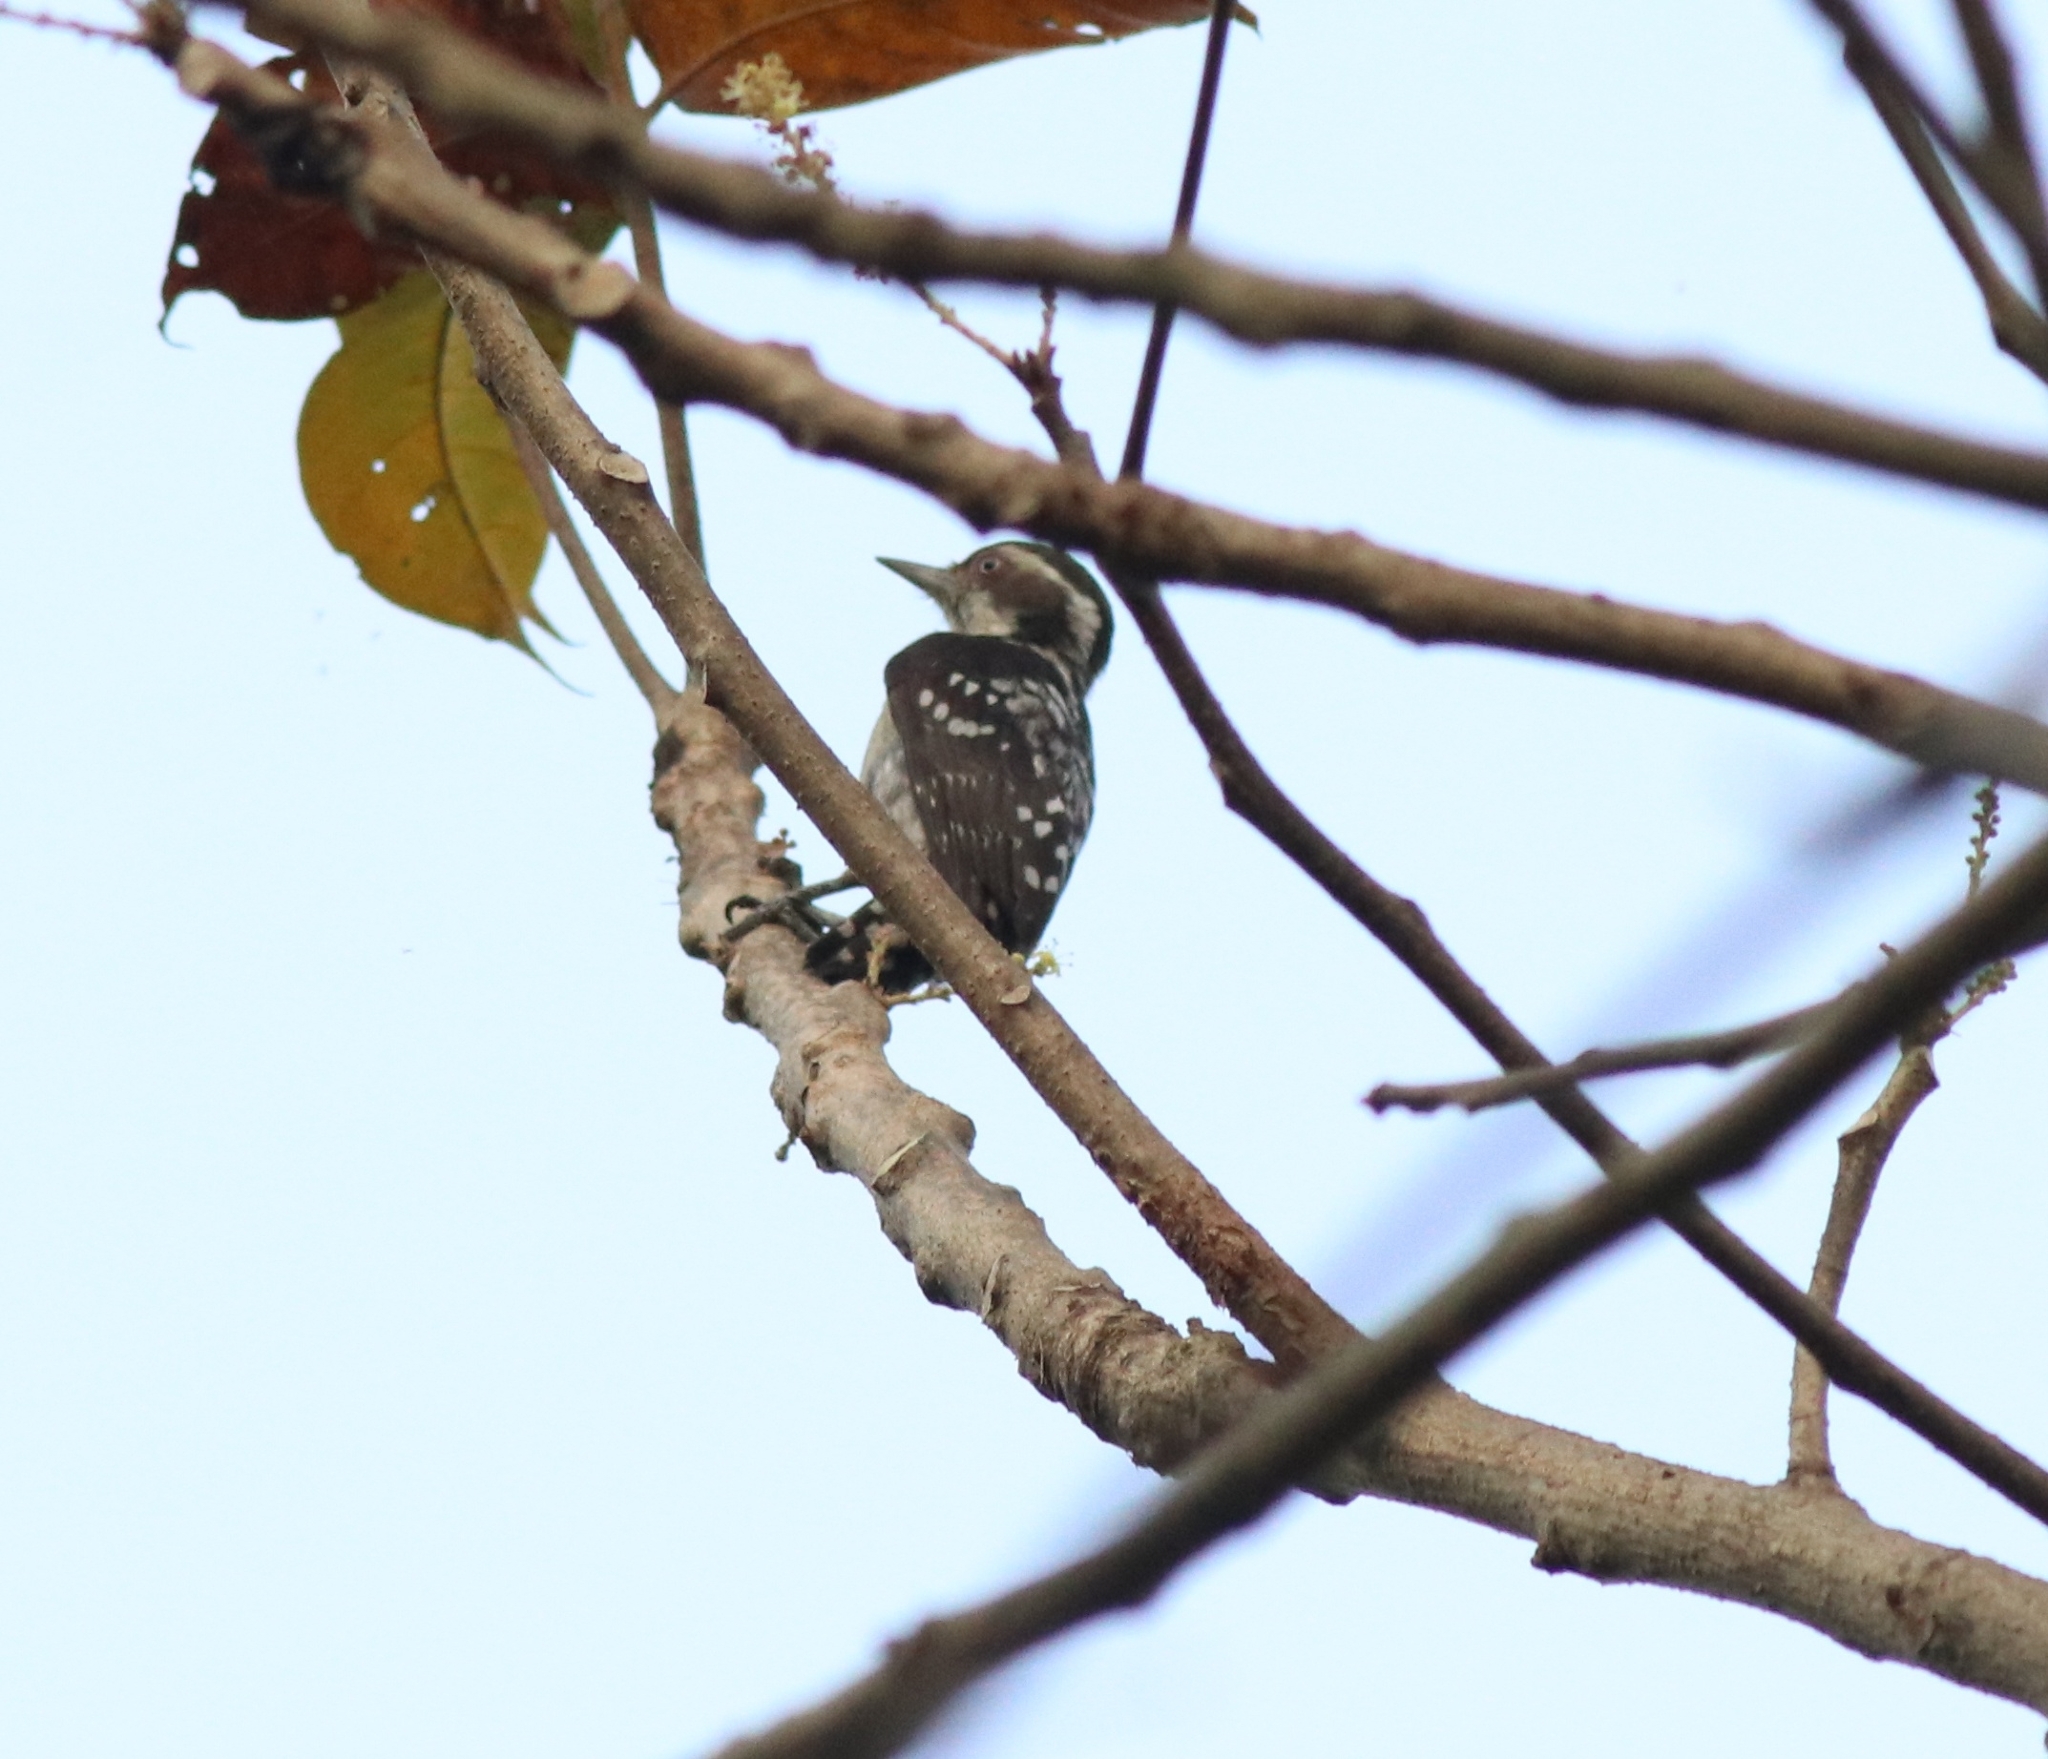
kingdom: Animalia
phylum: Chordata
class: Aves
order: Piciformes
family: Picidae
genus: Yungipicus
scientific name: Yungipicus nanus
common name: Brown-capped pygmy woodpecker
